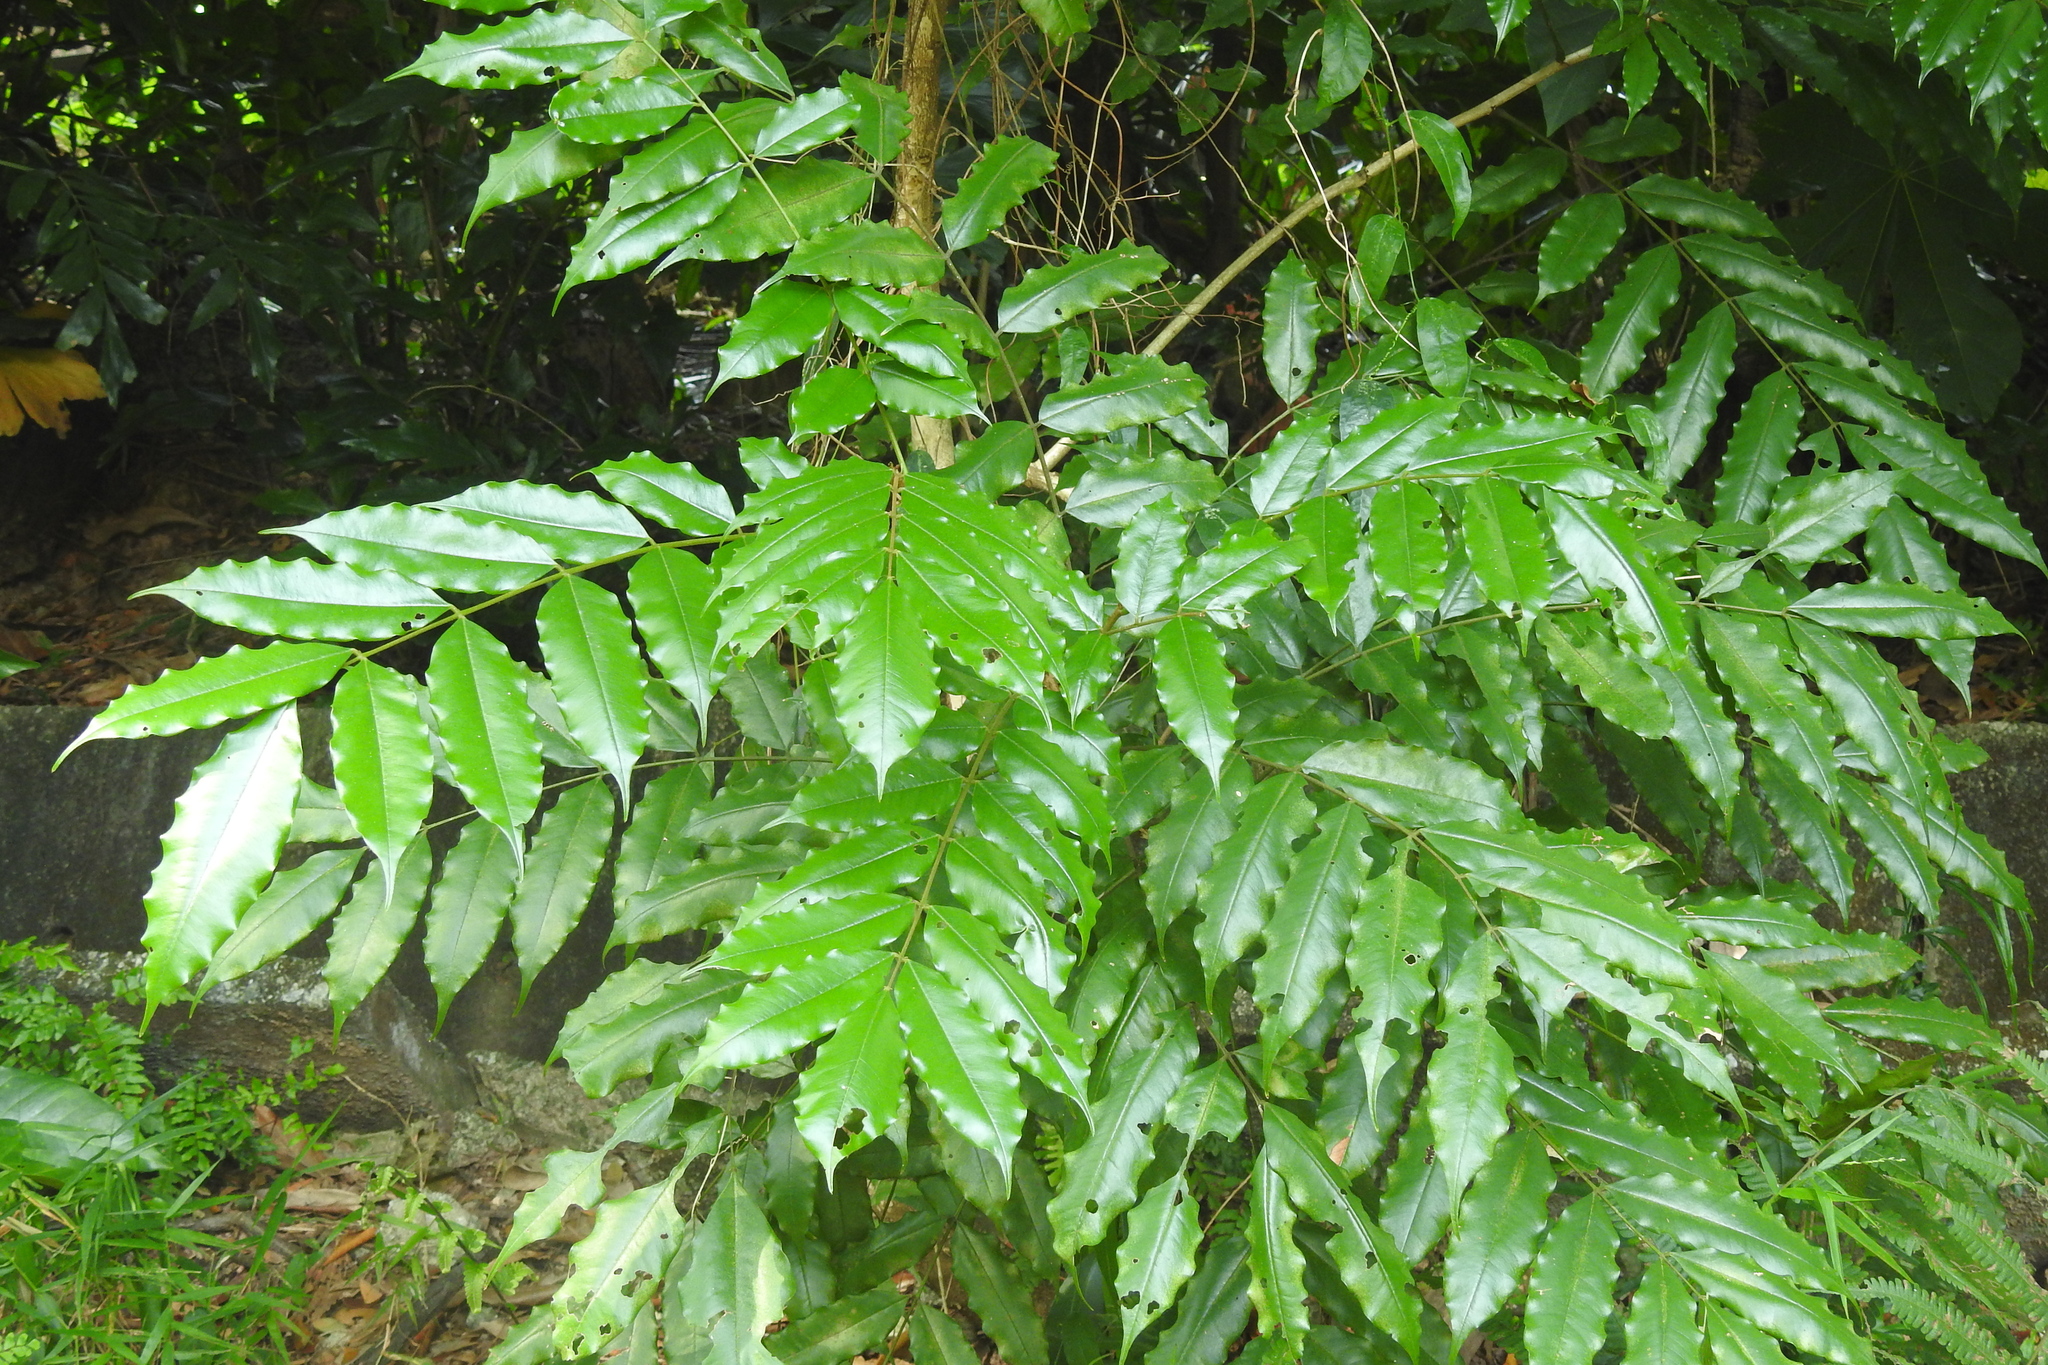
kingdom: Plantae
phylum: Tracheophyta
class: Magnoliopsida
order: Fabales
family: Fabaceae
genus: Andira
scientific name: Andira inermis
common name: Angelin
